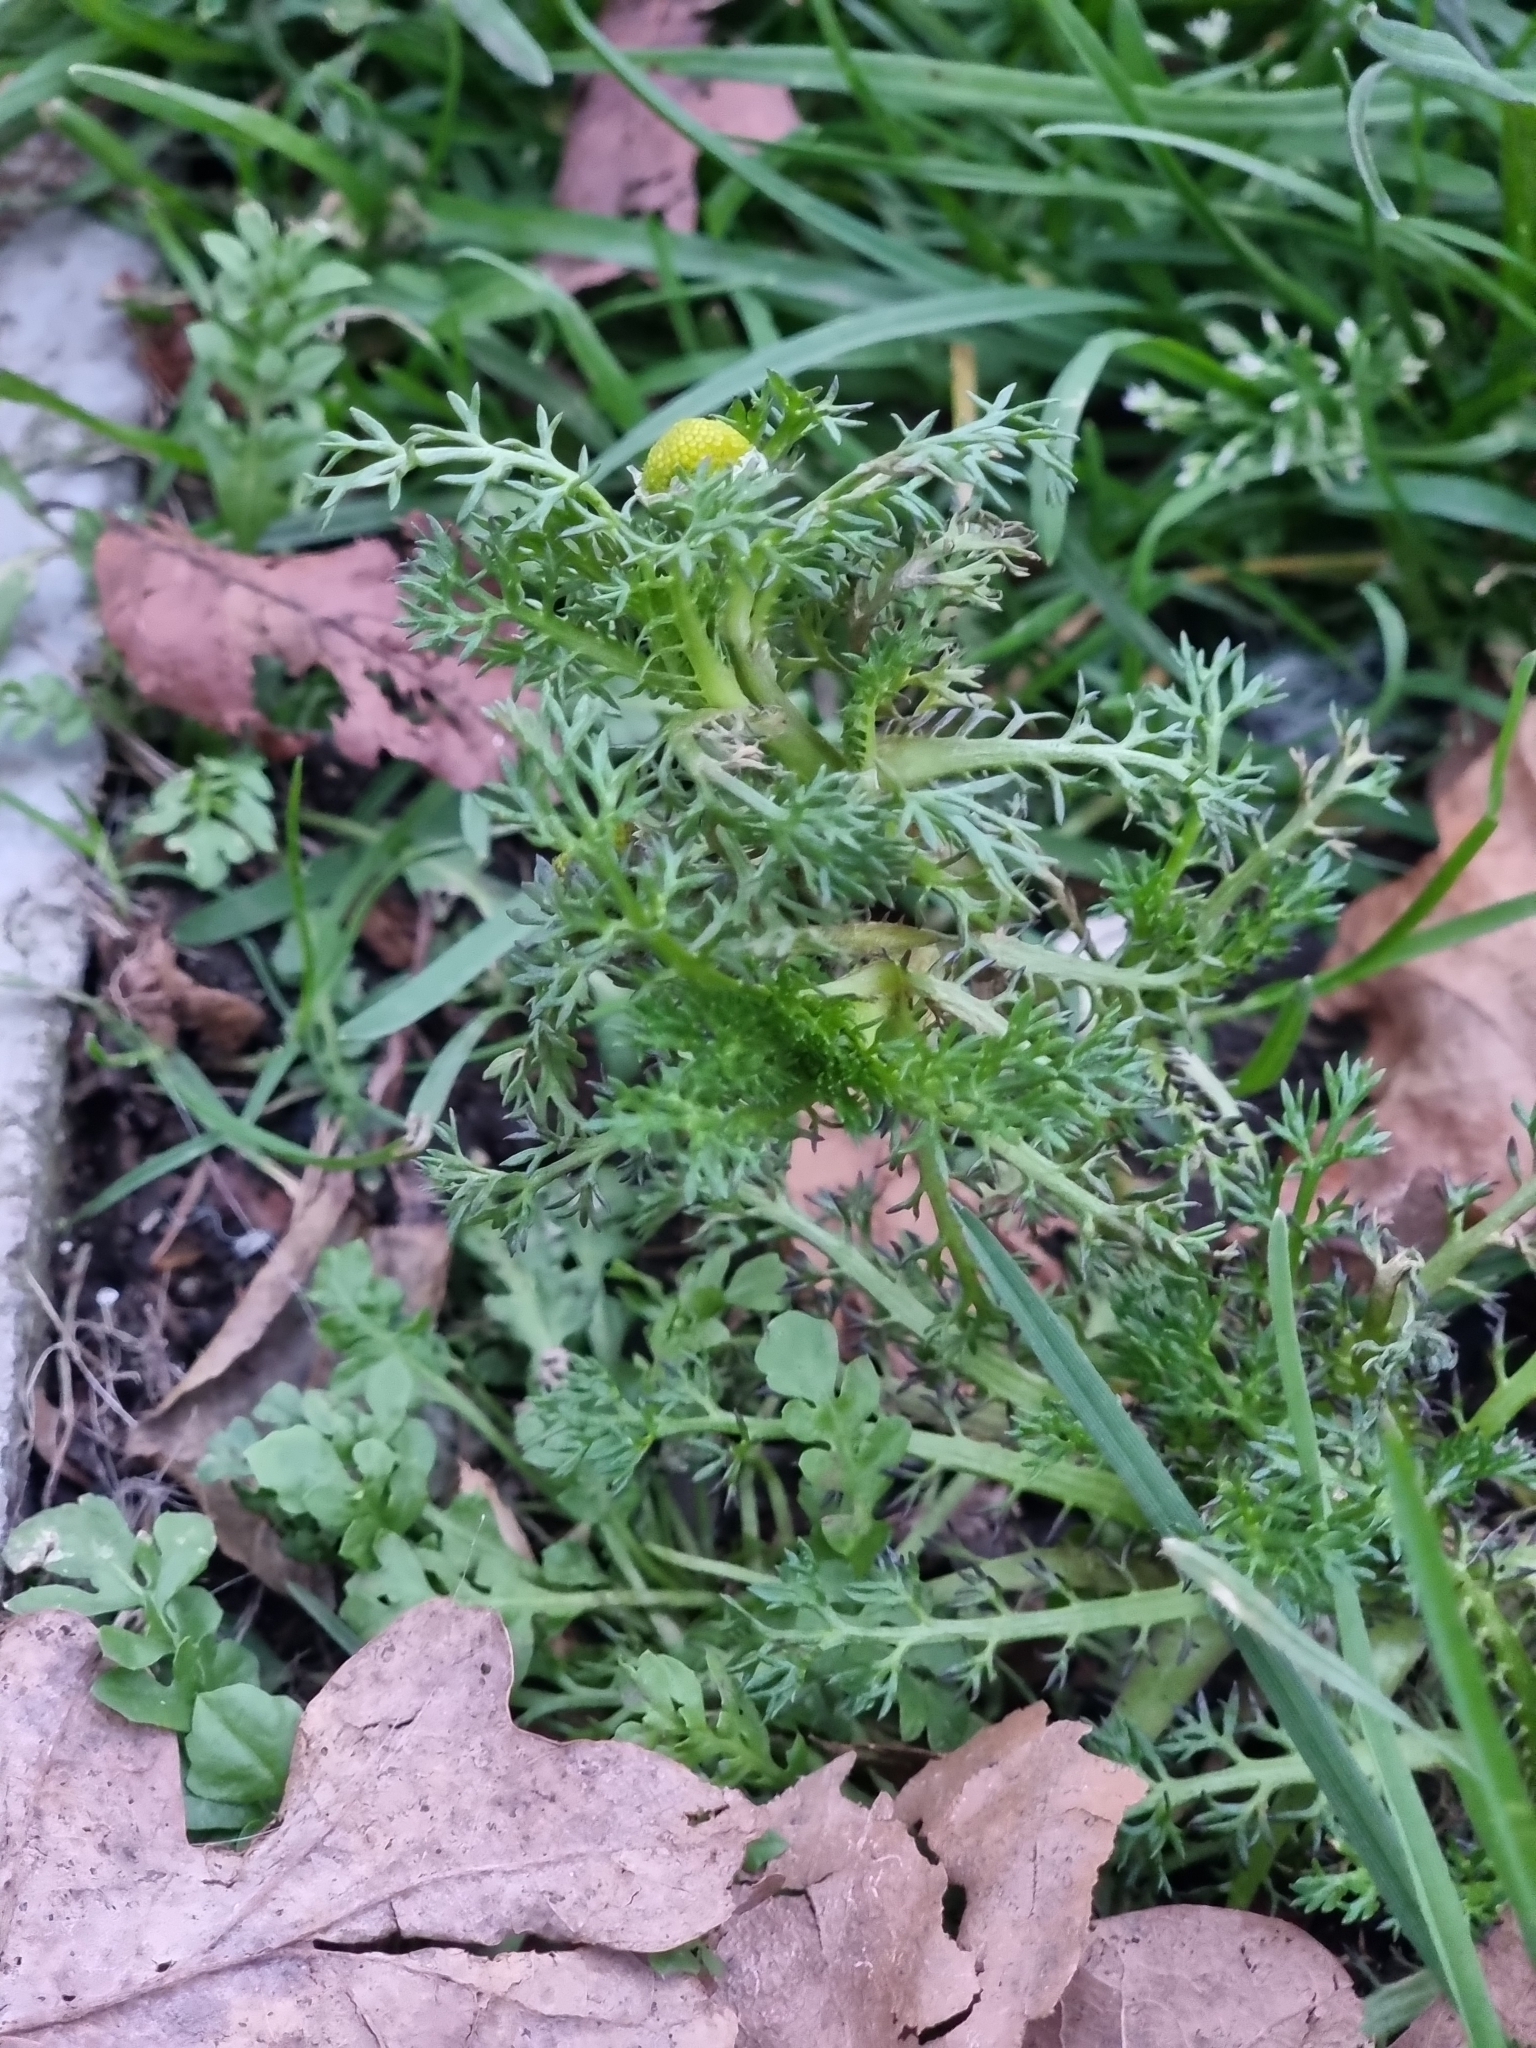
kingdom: Plantae
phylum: Tracheophyta
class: Magnoliopsida
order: Asterales
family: Asteraceae
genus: Matricaria
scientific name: Matricaria discoidea
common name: Disc mayweed
